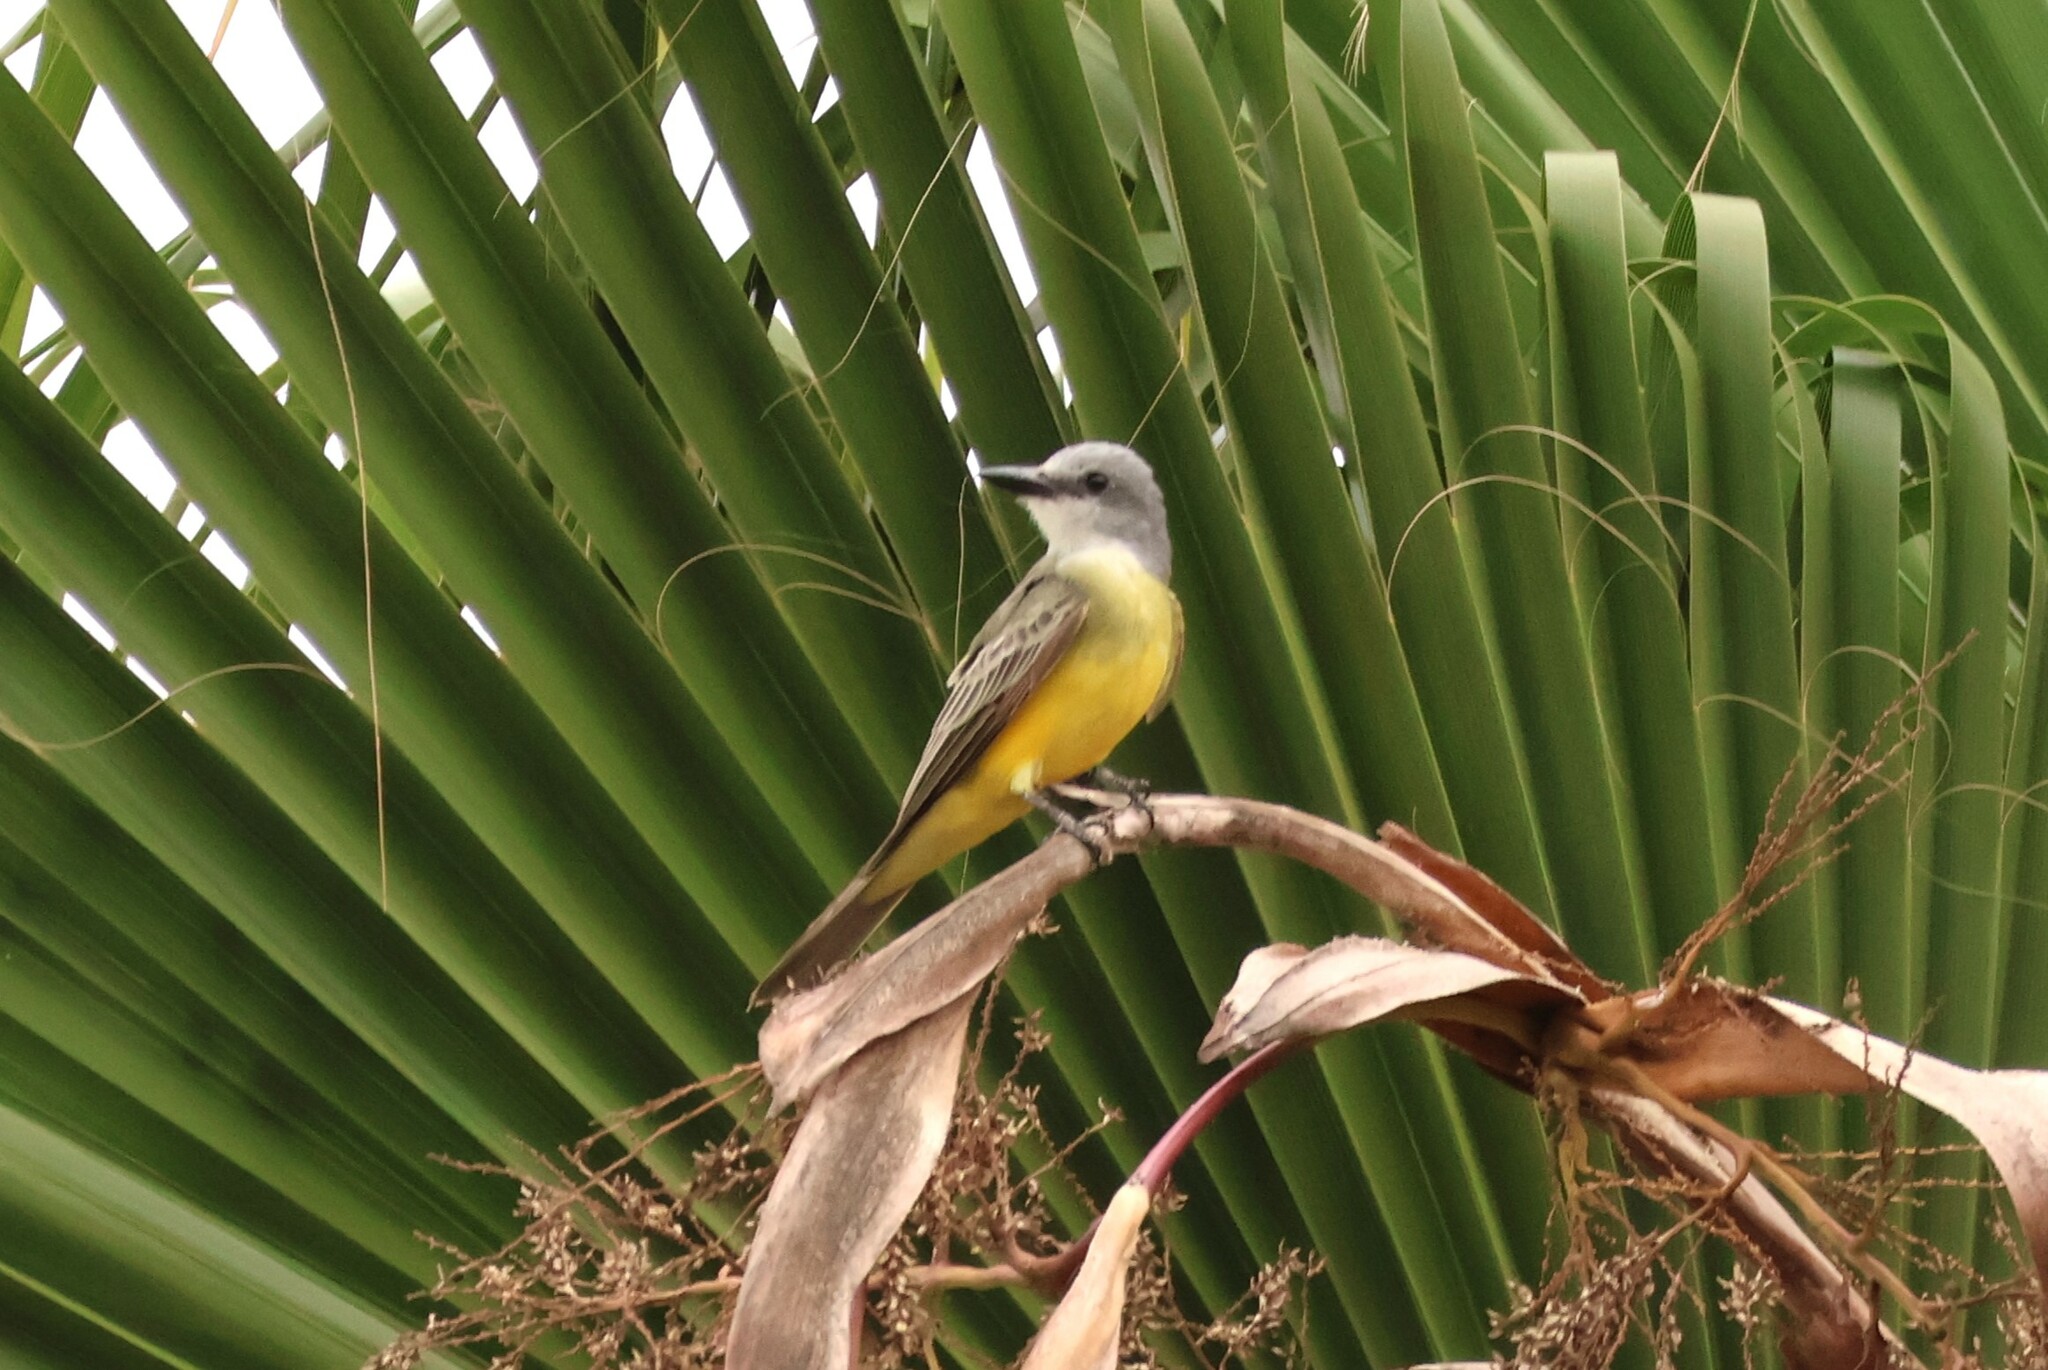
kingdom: Animalia
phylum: Chordata
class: Aves
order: Passeriformes
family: Tyrannidae
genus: Tyrannus
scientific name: Tyrannus melancholicus
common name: Tropical kingbird
